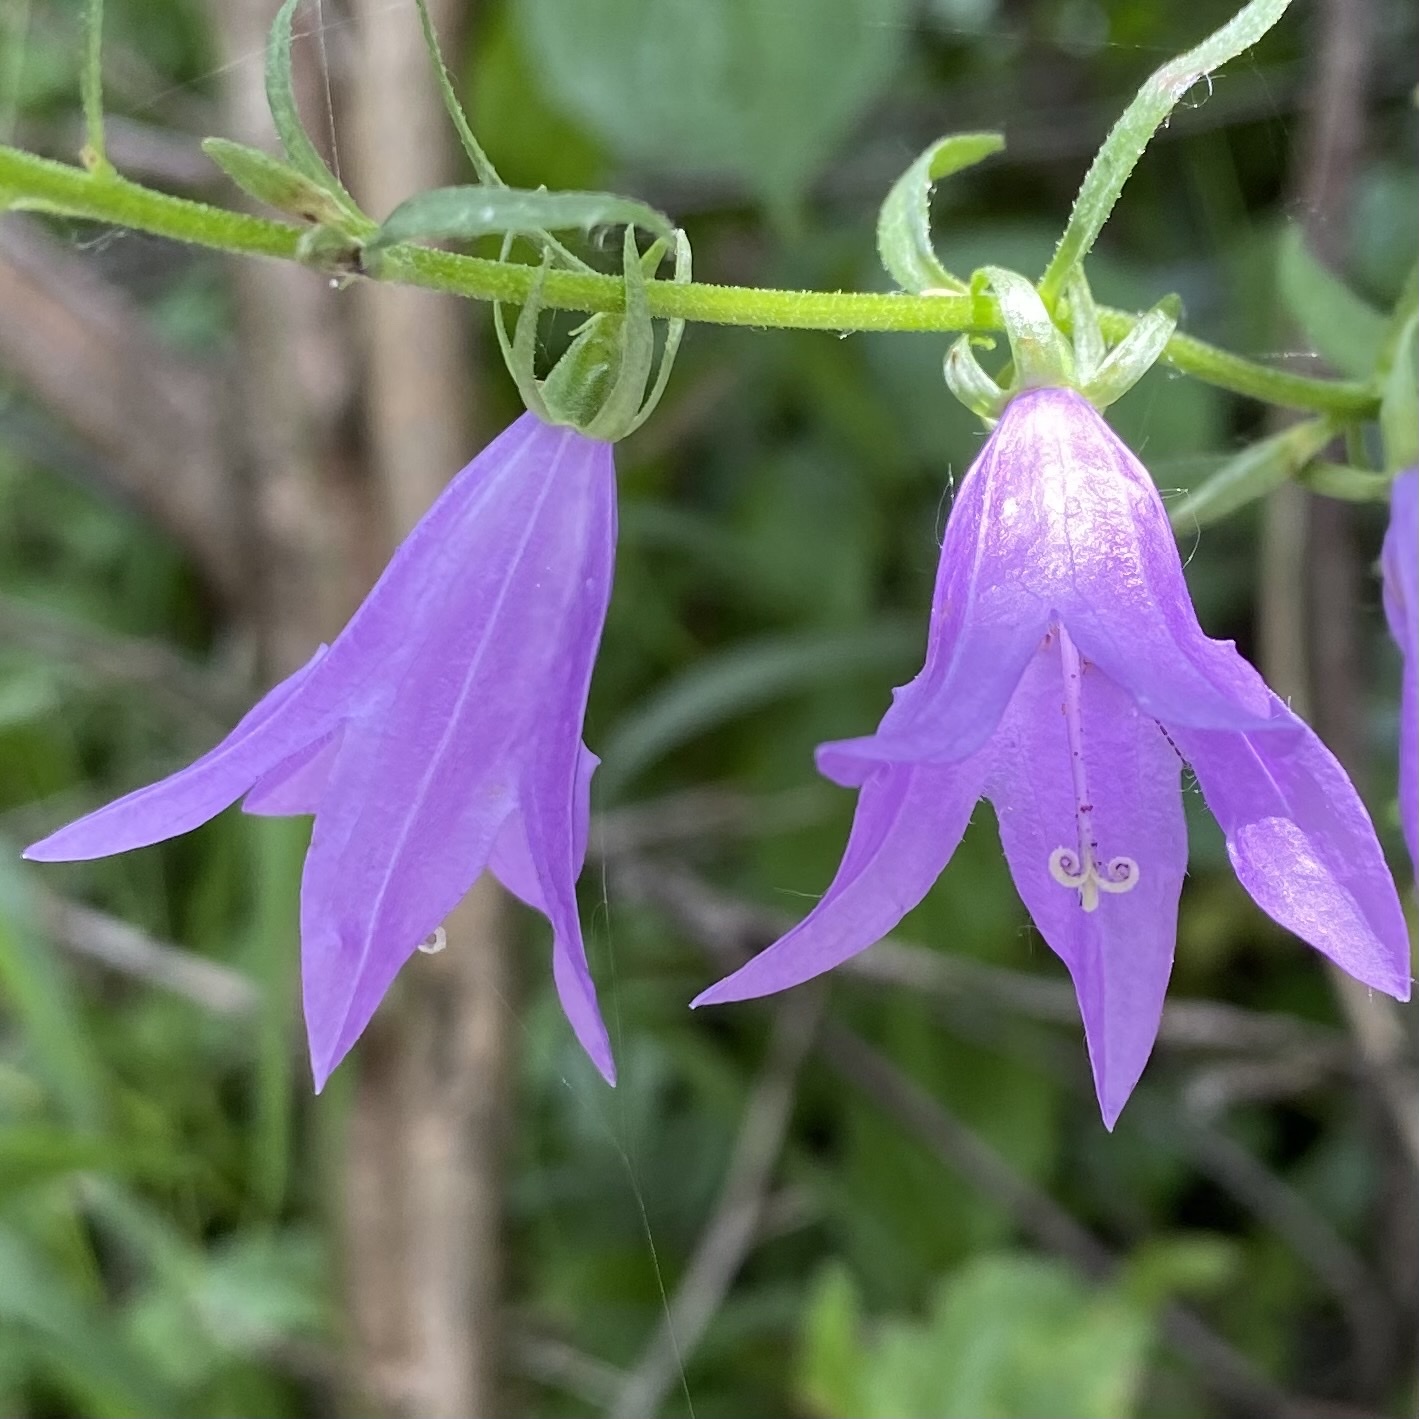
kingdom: Plantae
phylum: Tracheophyta
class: Magnoliopsida
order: Asterales
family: Campanulaceae
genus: Campanula
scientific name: Campanula rapunculoides
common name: Creeping bellflower
